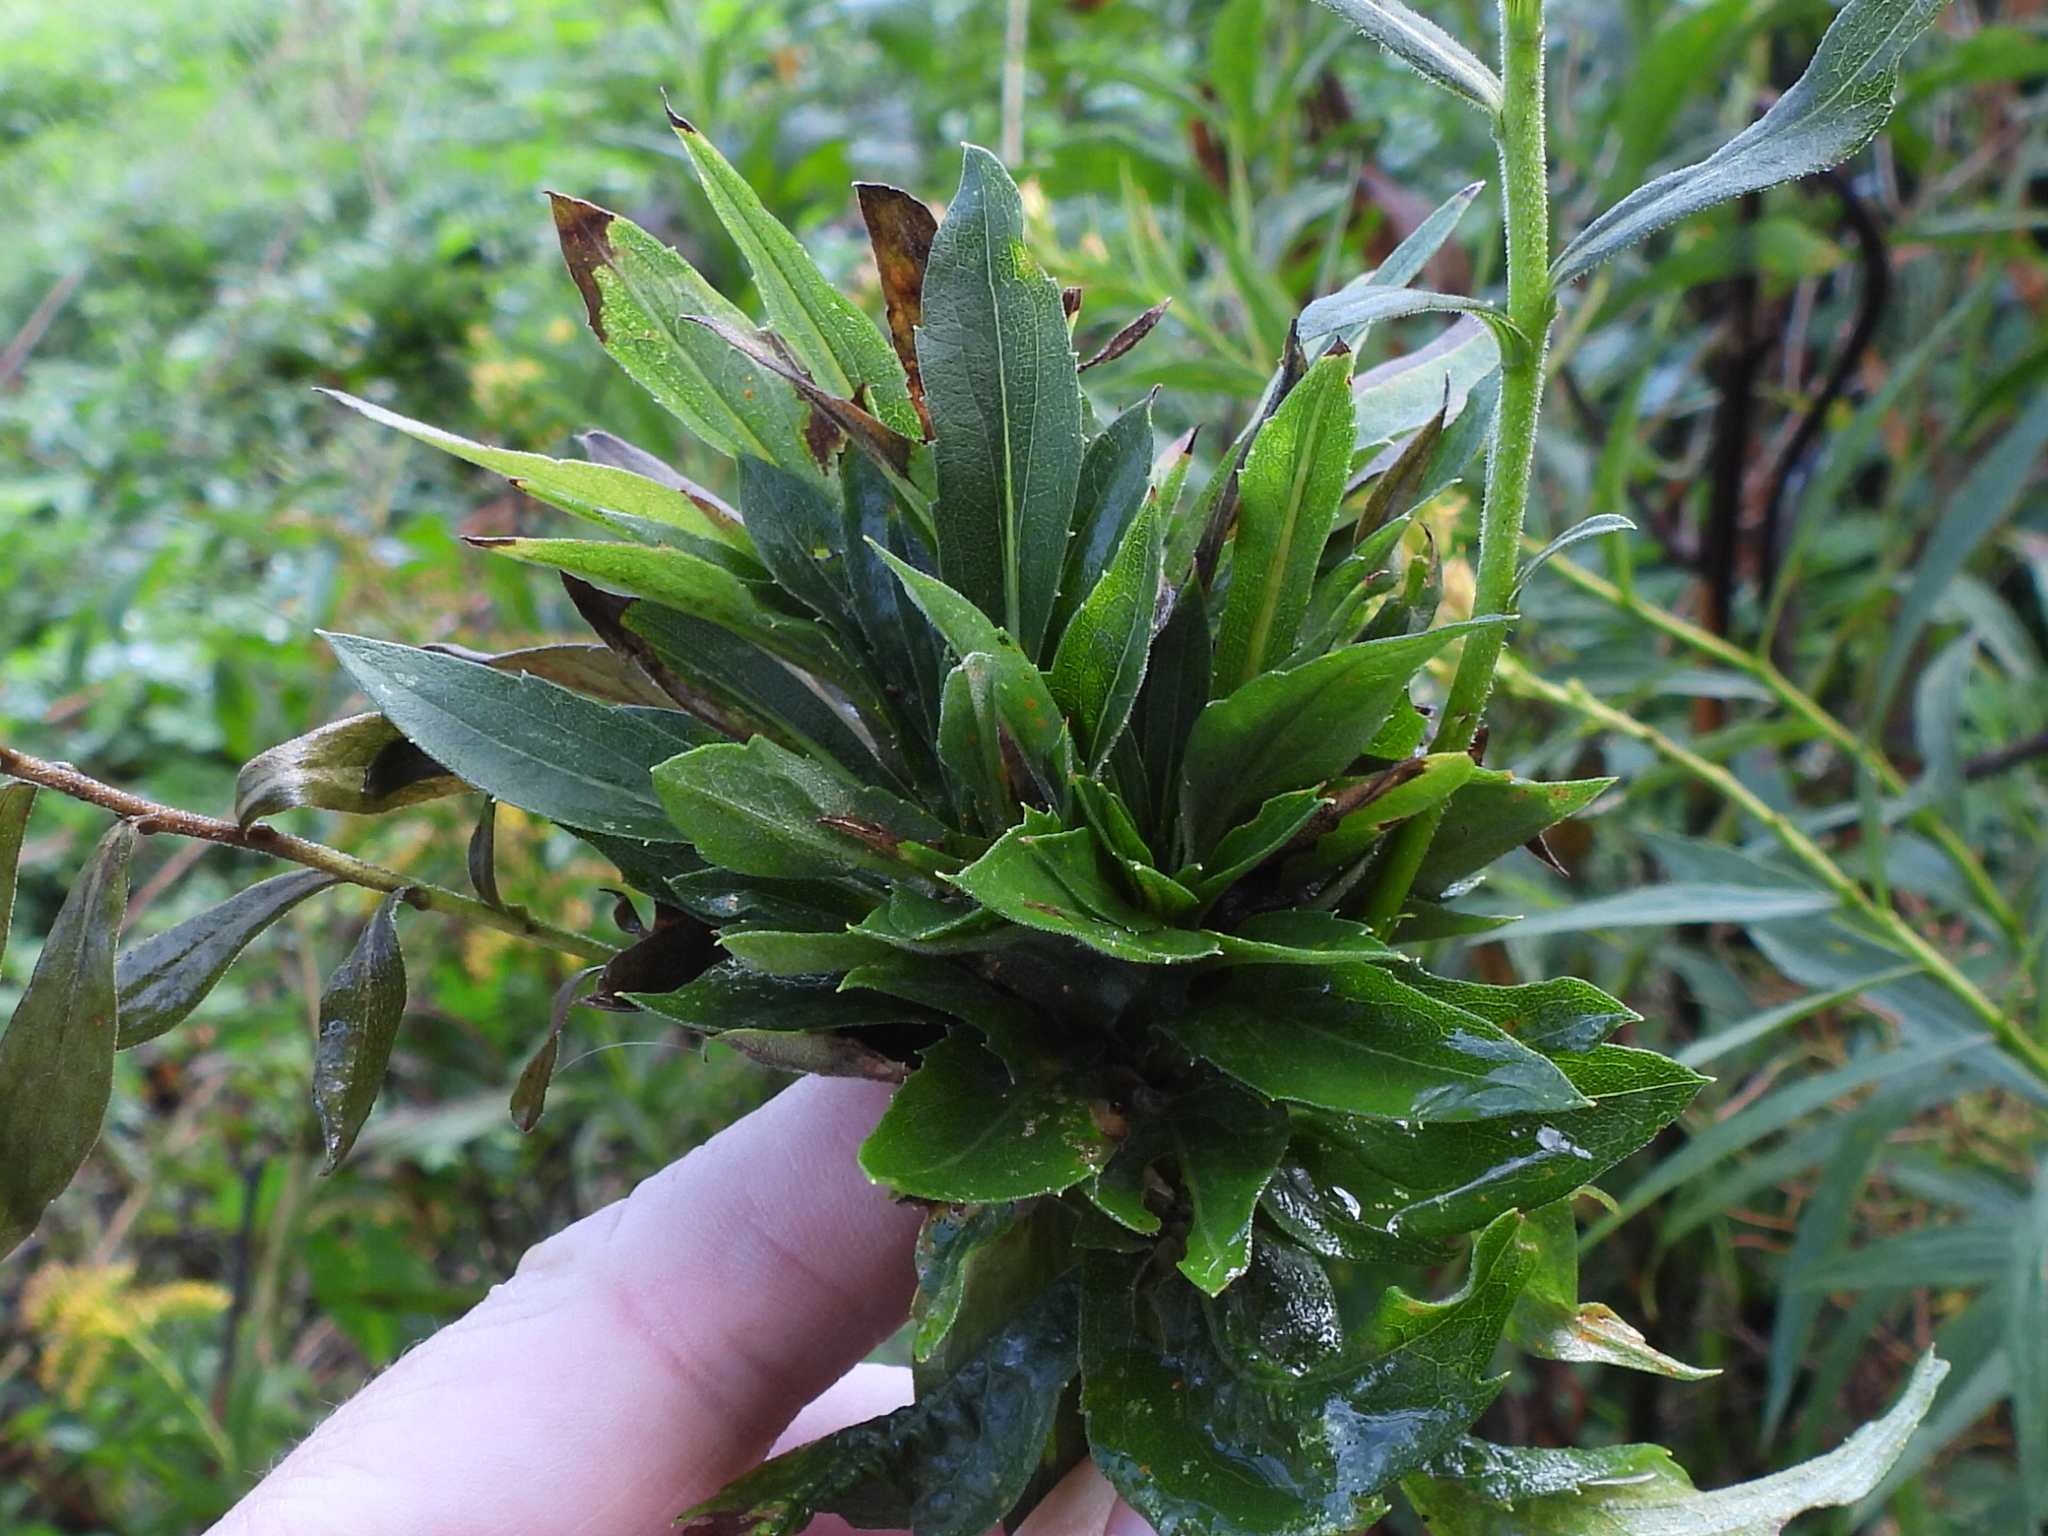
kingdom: Animalia
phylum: Arthropoda
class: Insecta
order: Diptera
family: Cecidomyiidae
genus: Rhopalomyia
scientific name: Rhopalomyia solidaginis
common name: Goldenrod bunch gall midge
